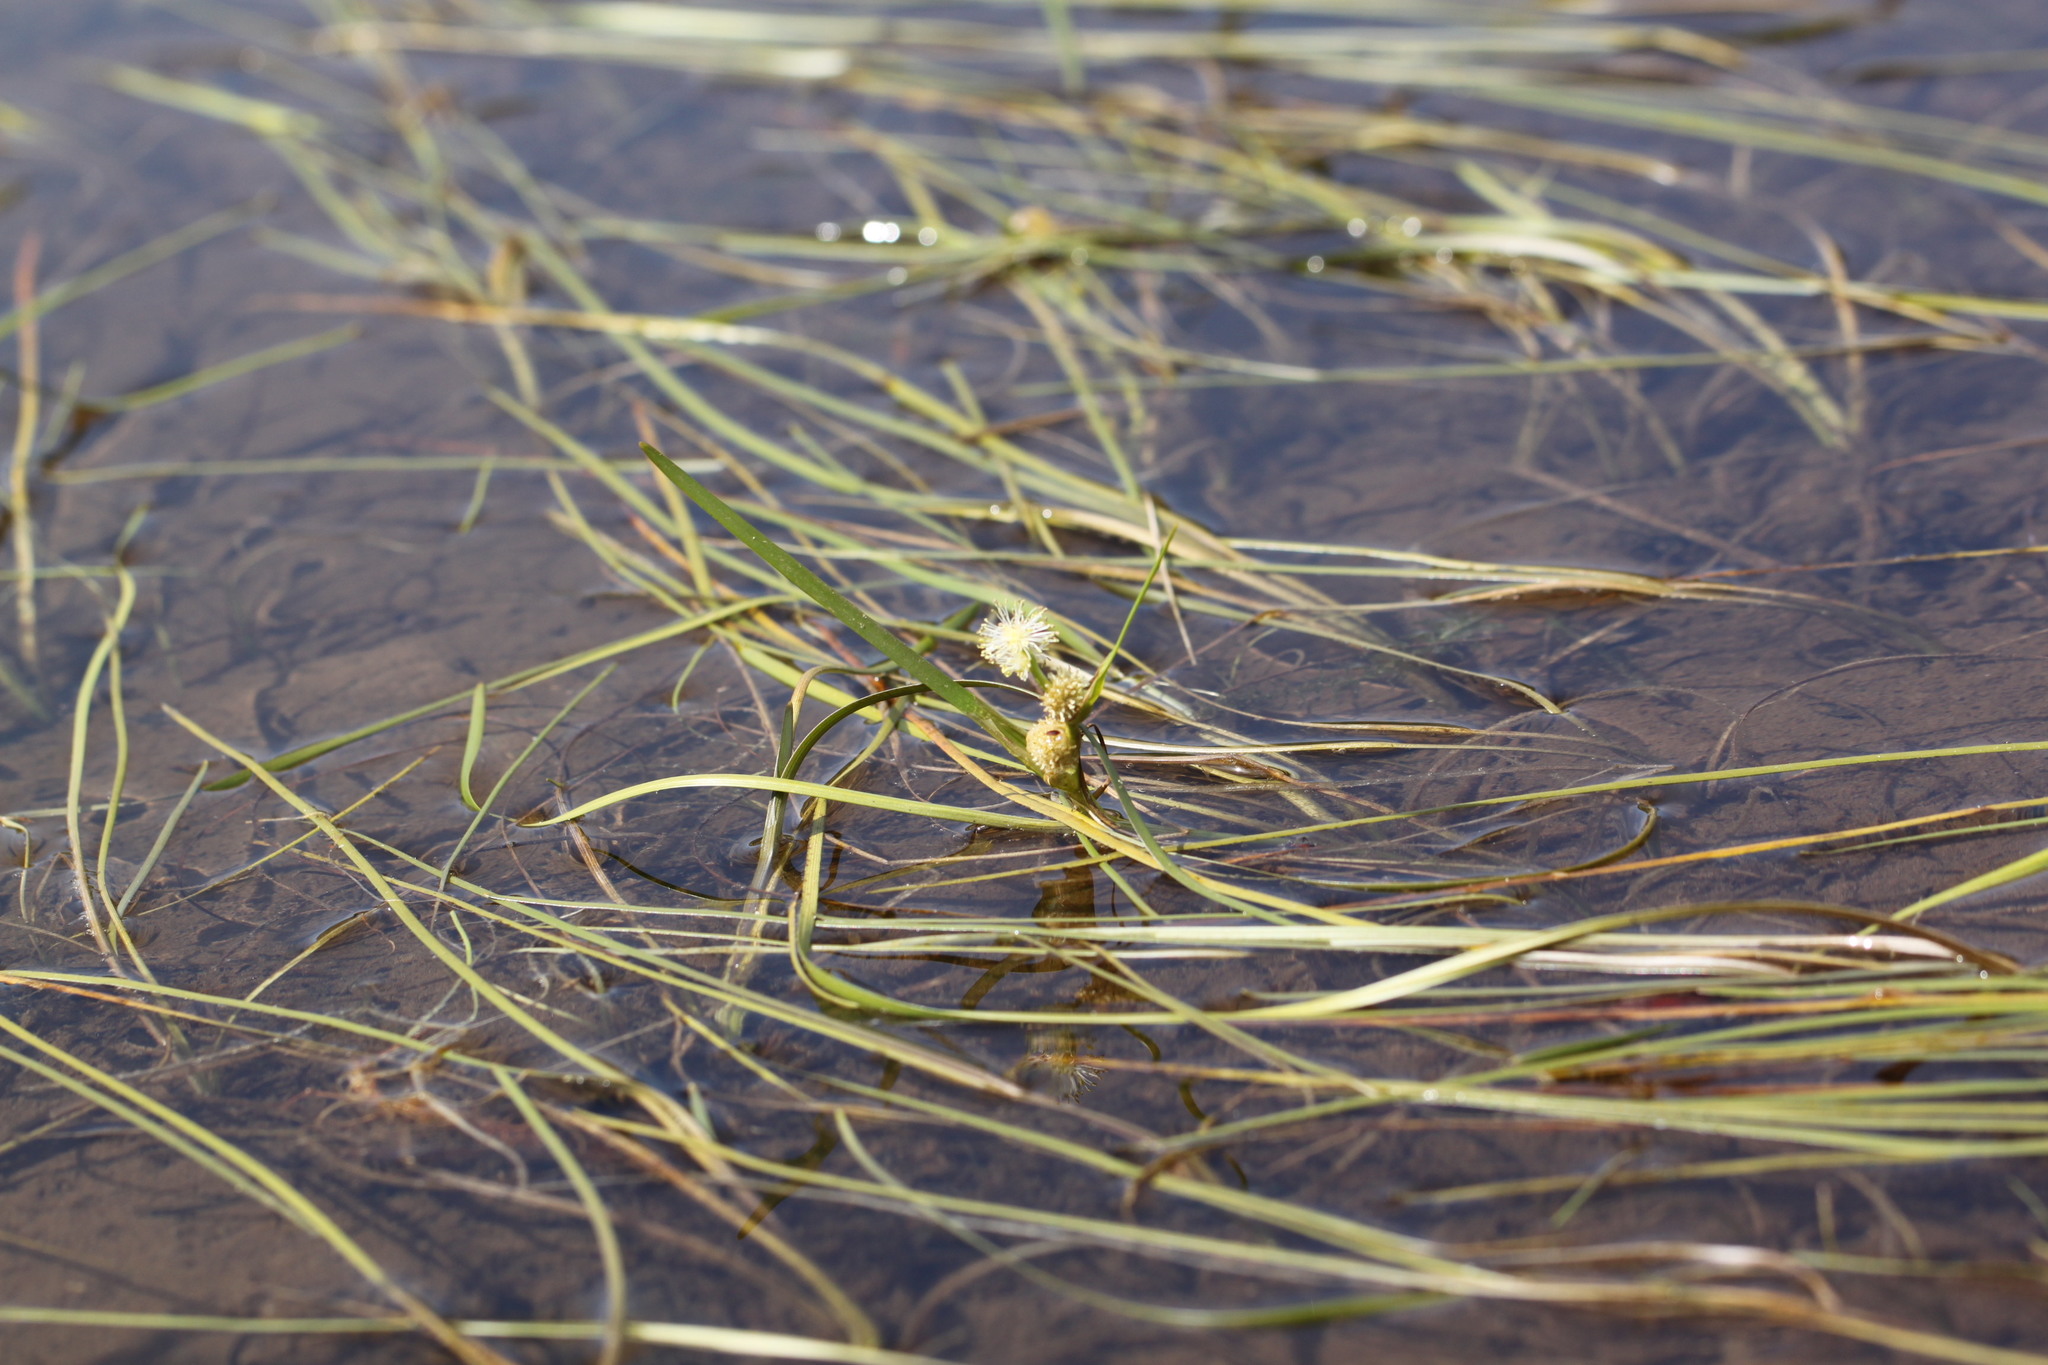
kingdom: Plantae
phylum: Tracheophyta
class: Liliopsida
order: Poales
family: Typhaceae
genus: Sparganium
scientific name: Sparganium angustifolium
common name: Floating bur-reed
